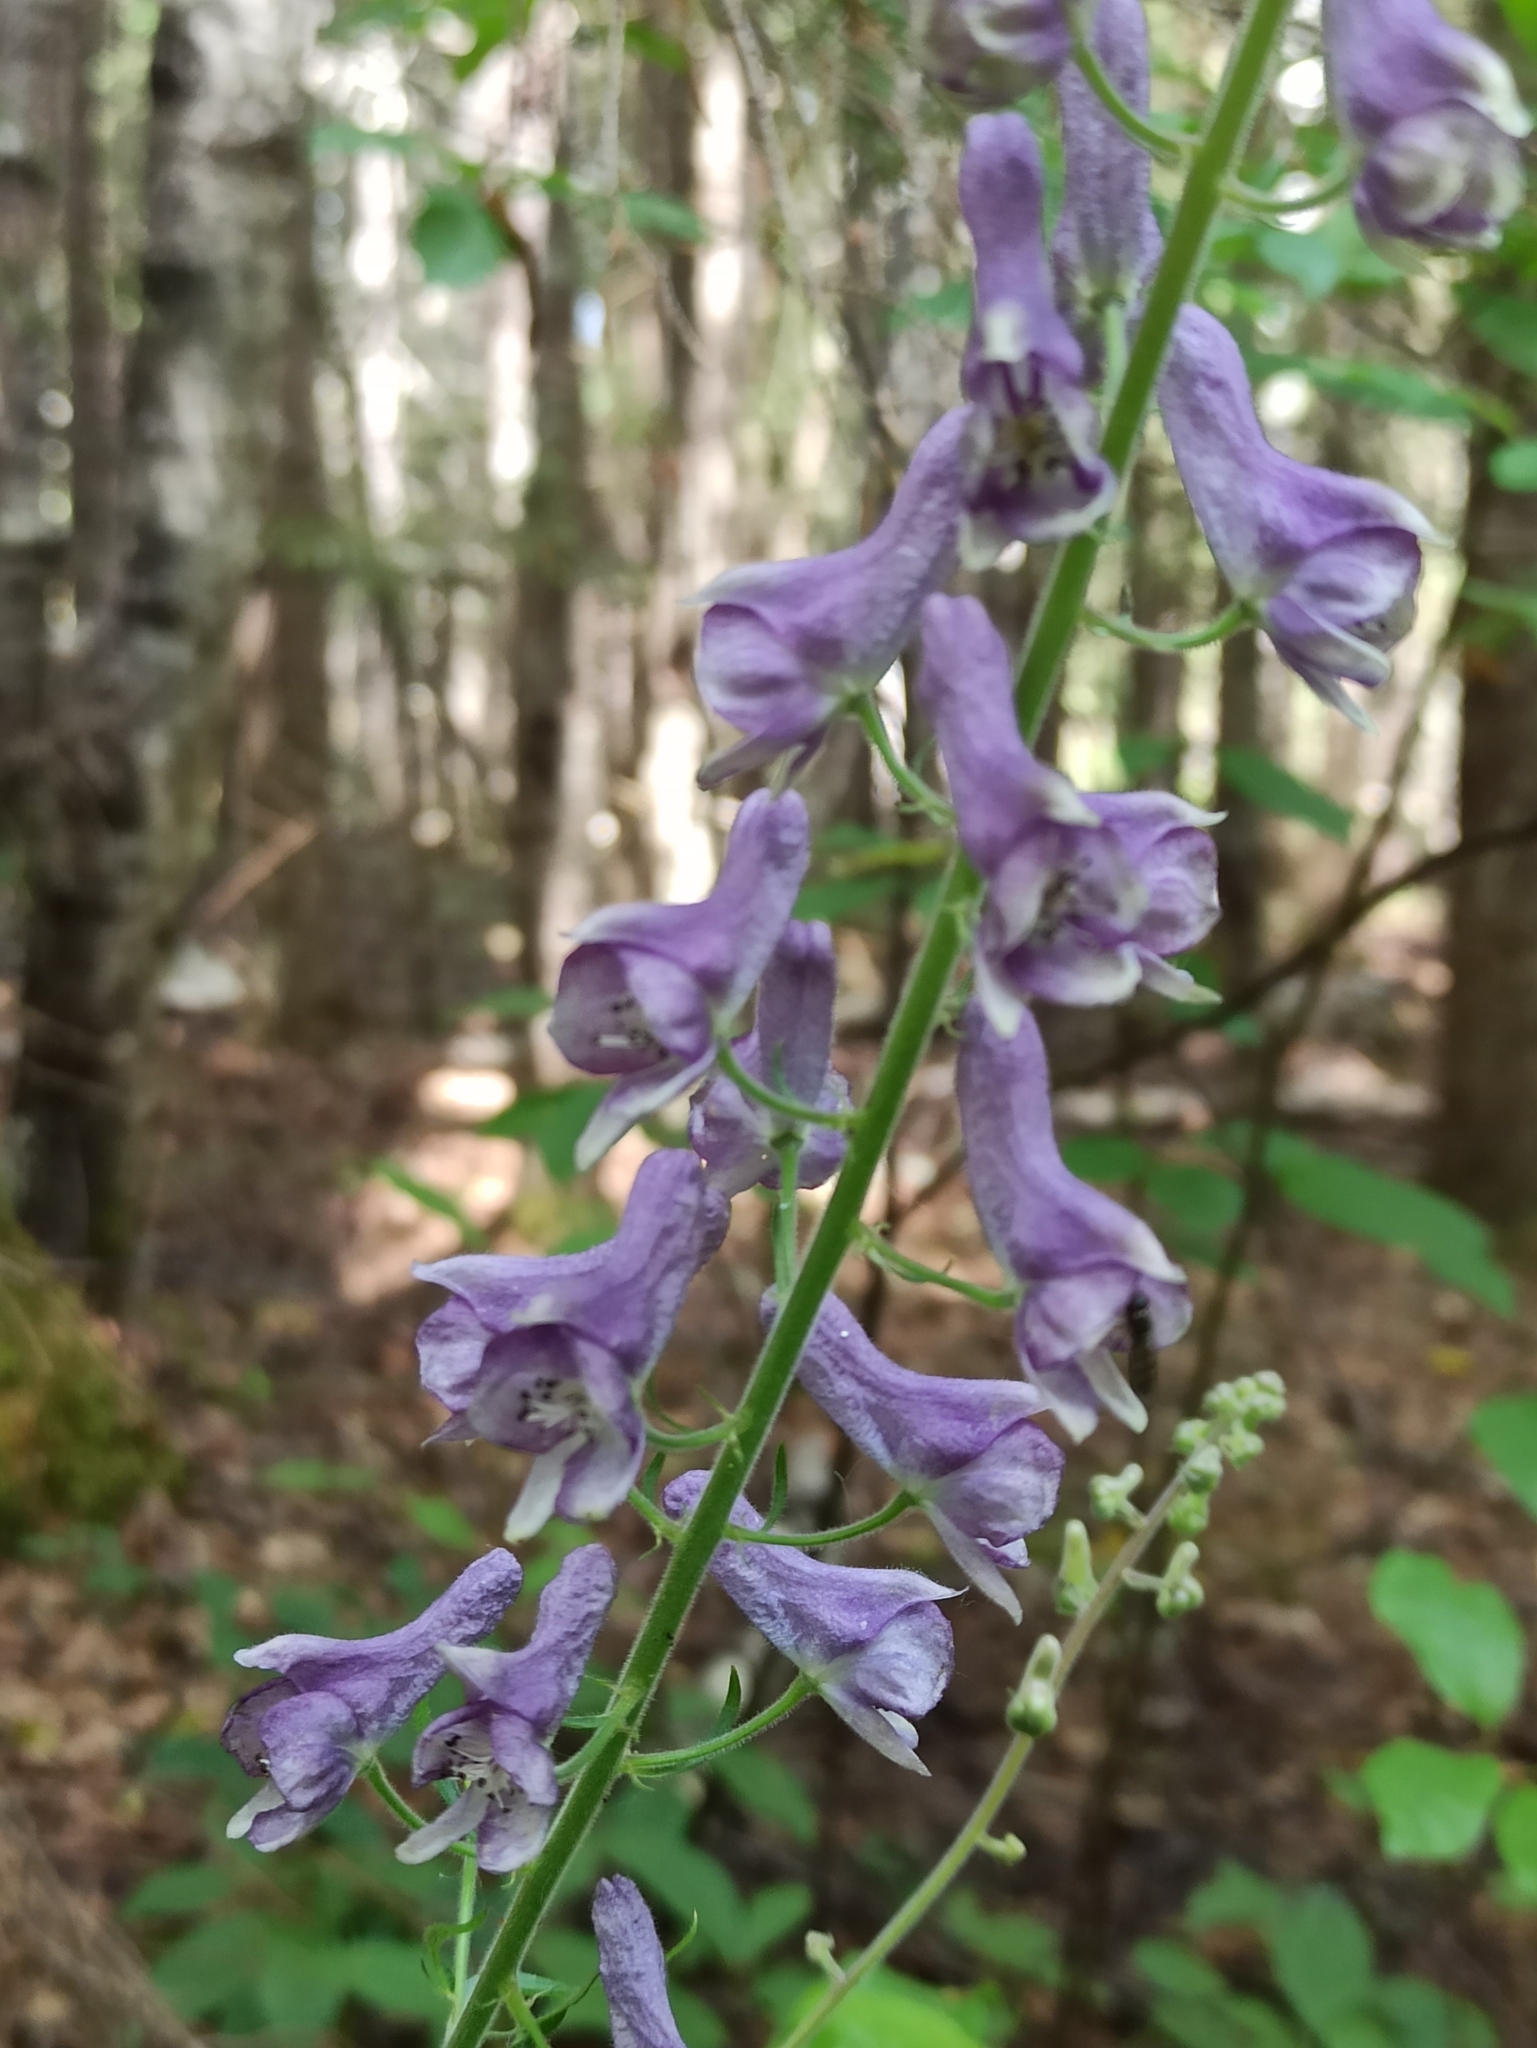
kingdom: Plantae
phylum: Tracheophyta
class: Magnoliopsida
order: Ranunculales
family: Ranunculaceae
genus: Aconitum
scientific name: Aconitum septentrionale
